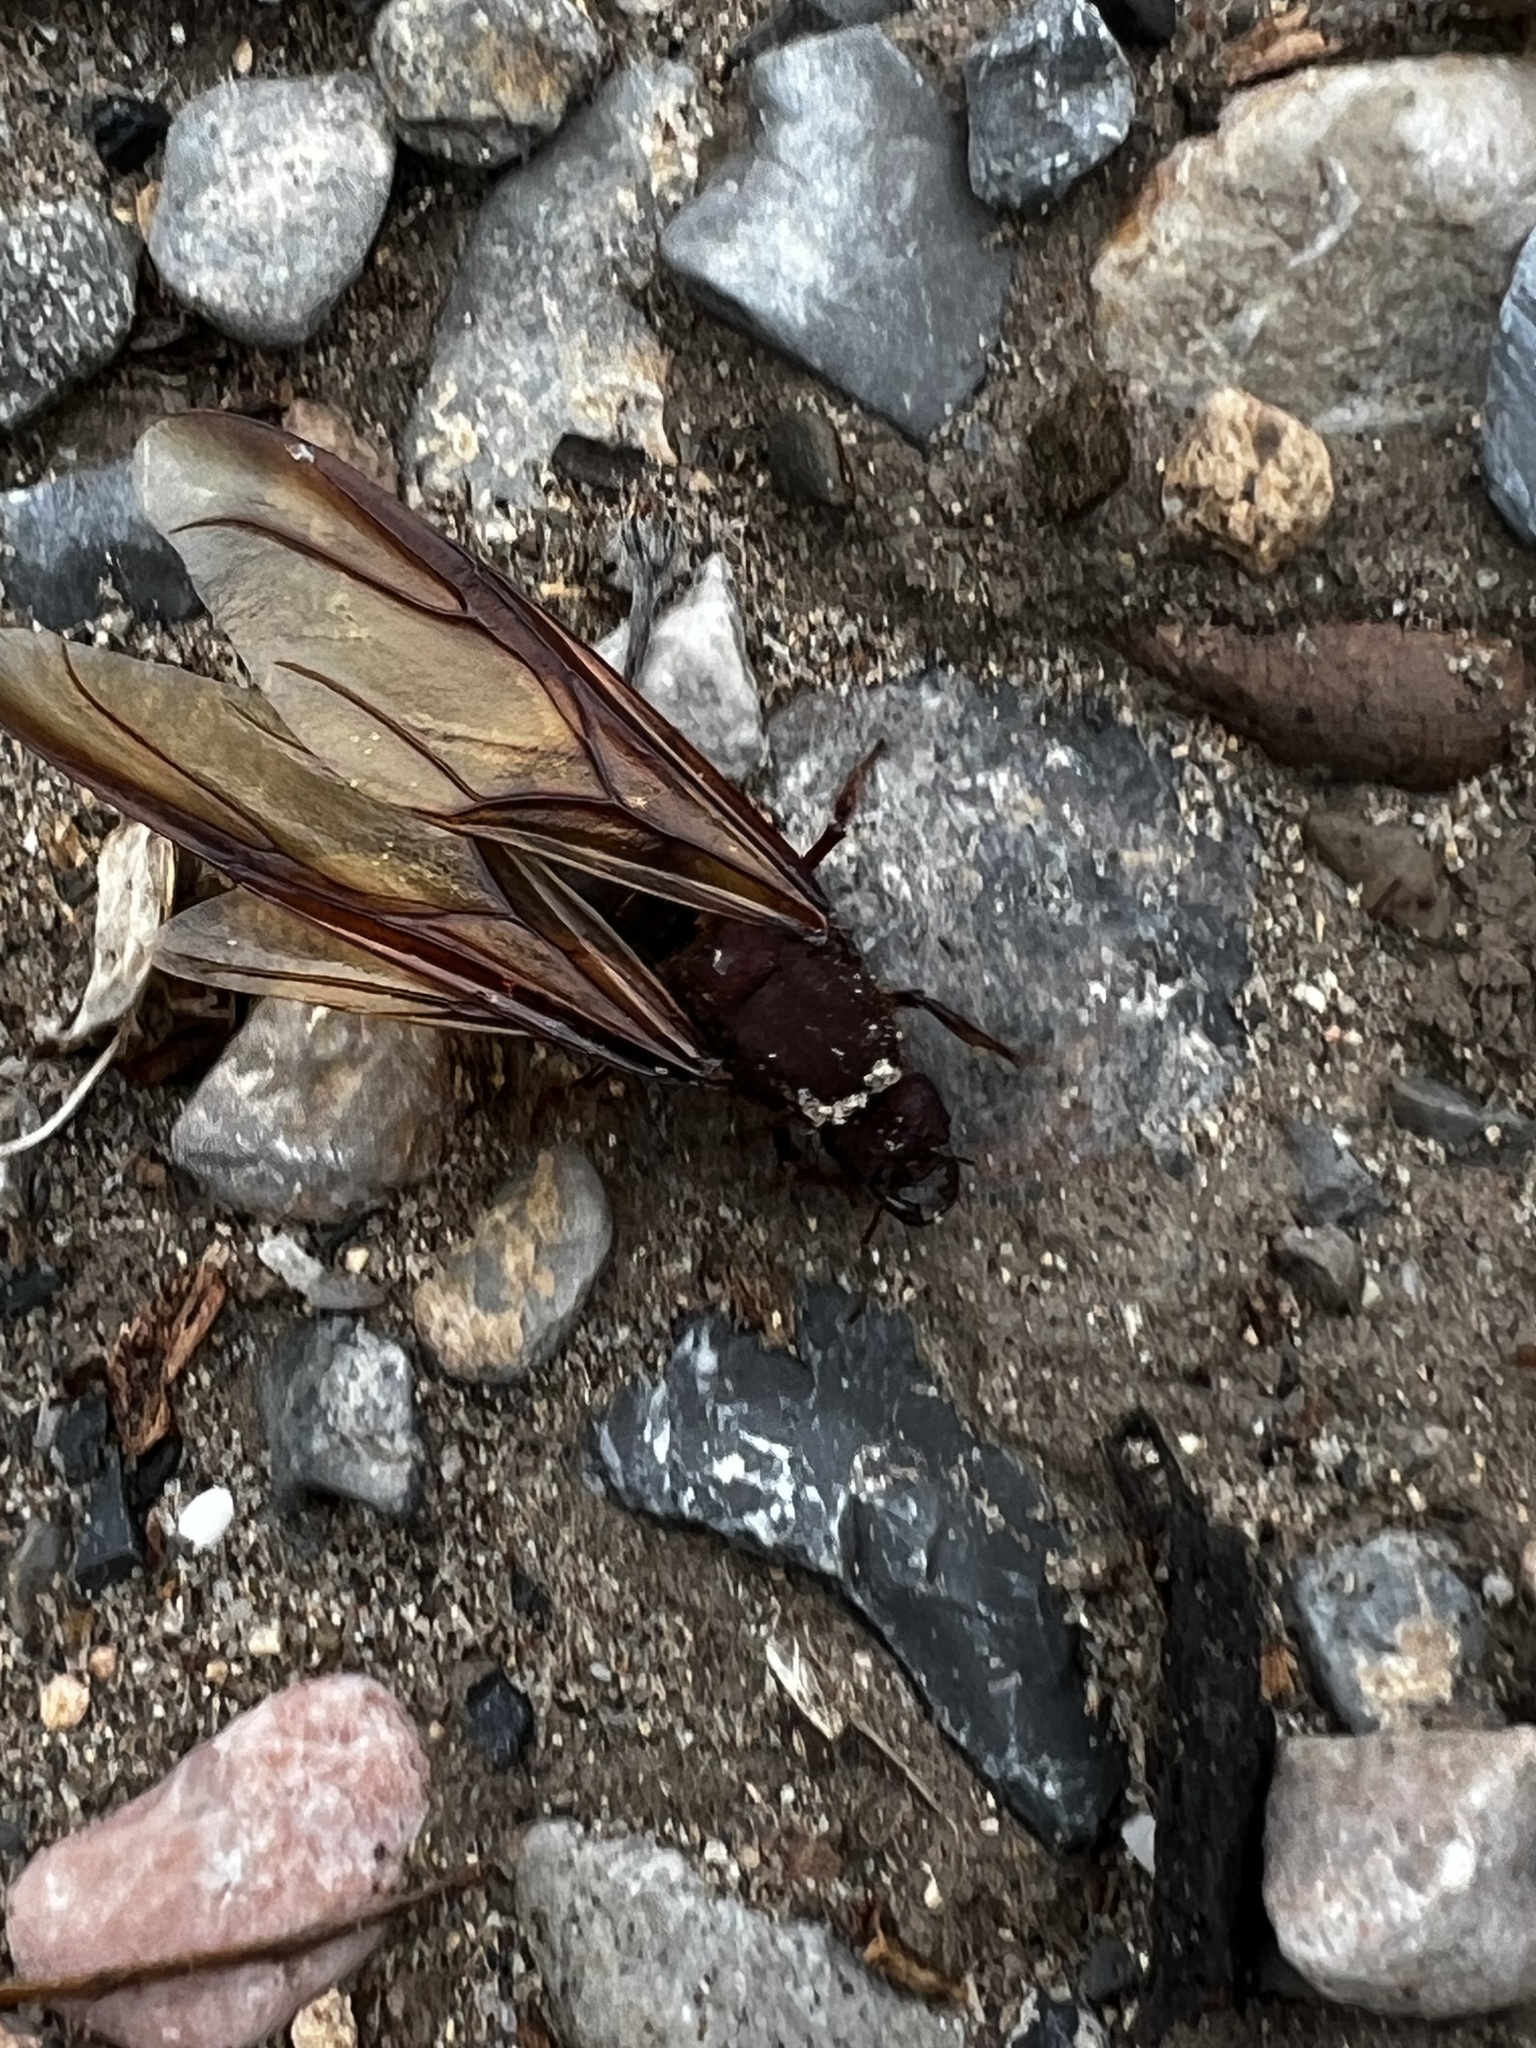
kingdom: Animalia
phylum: Arthropoda
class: Insecta
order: Hymenoptera
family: Formicidae
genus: Atta
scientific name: Atta mexicana
